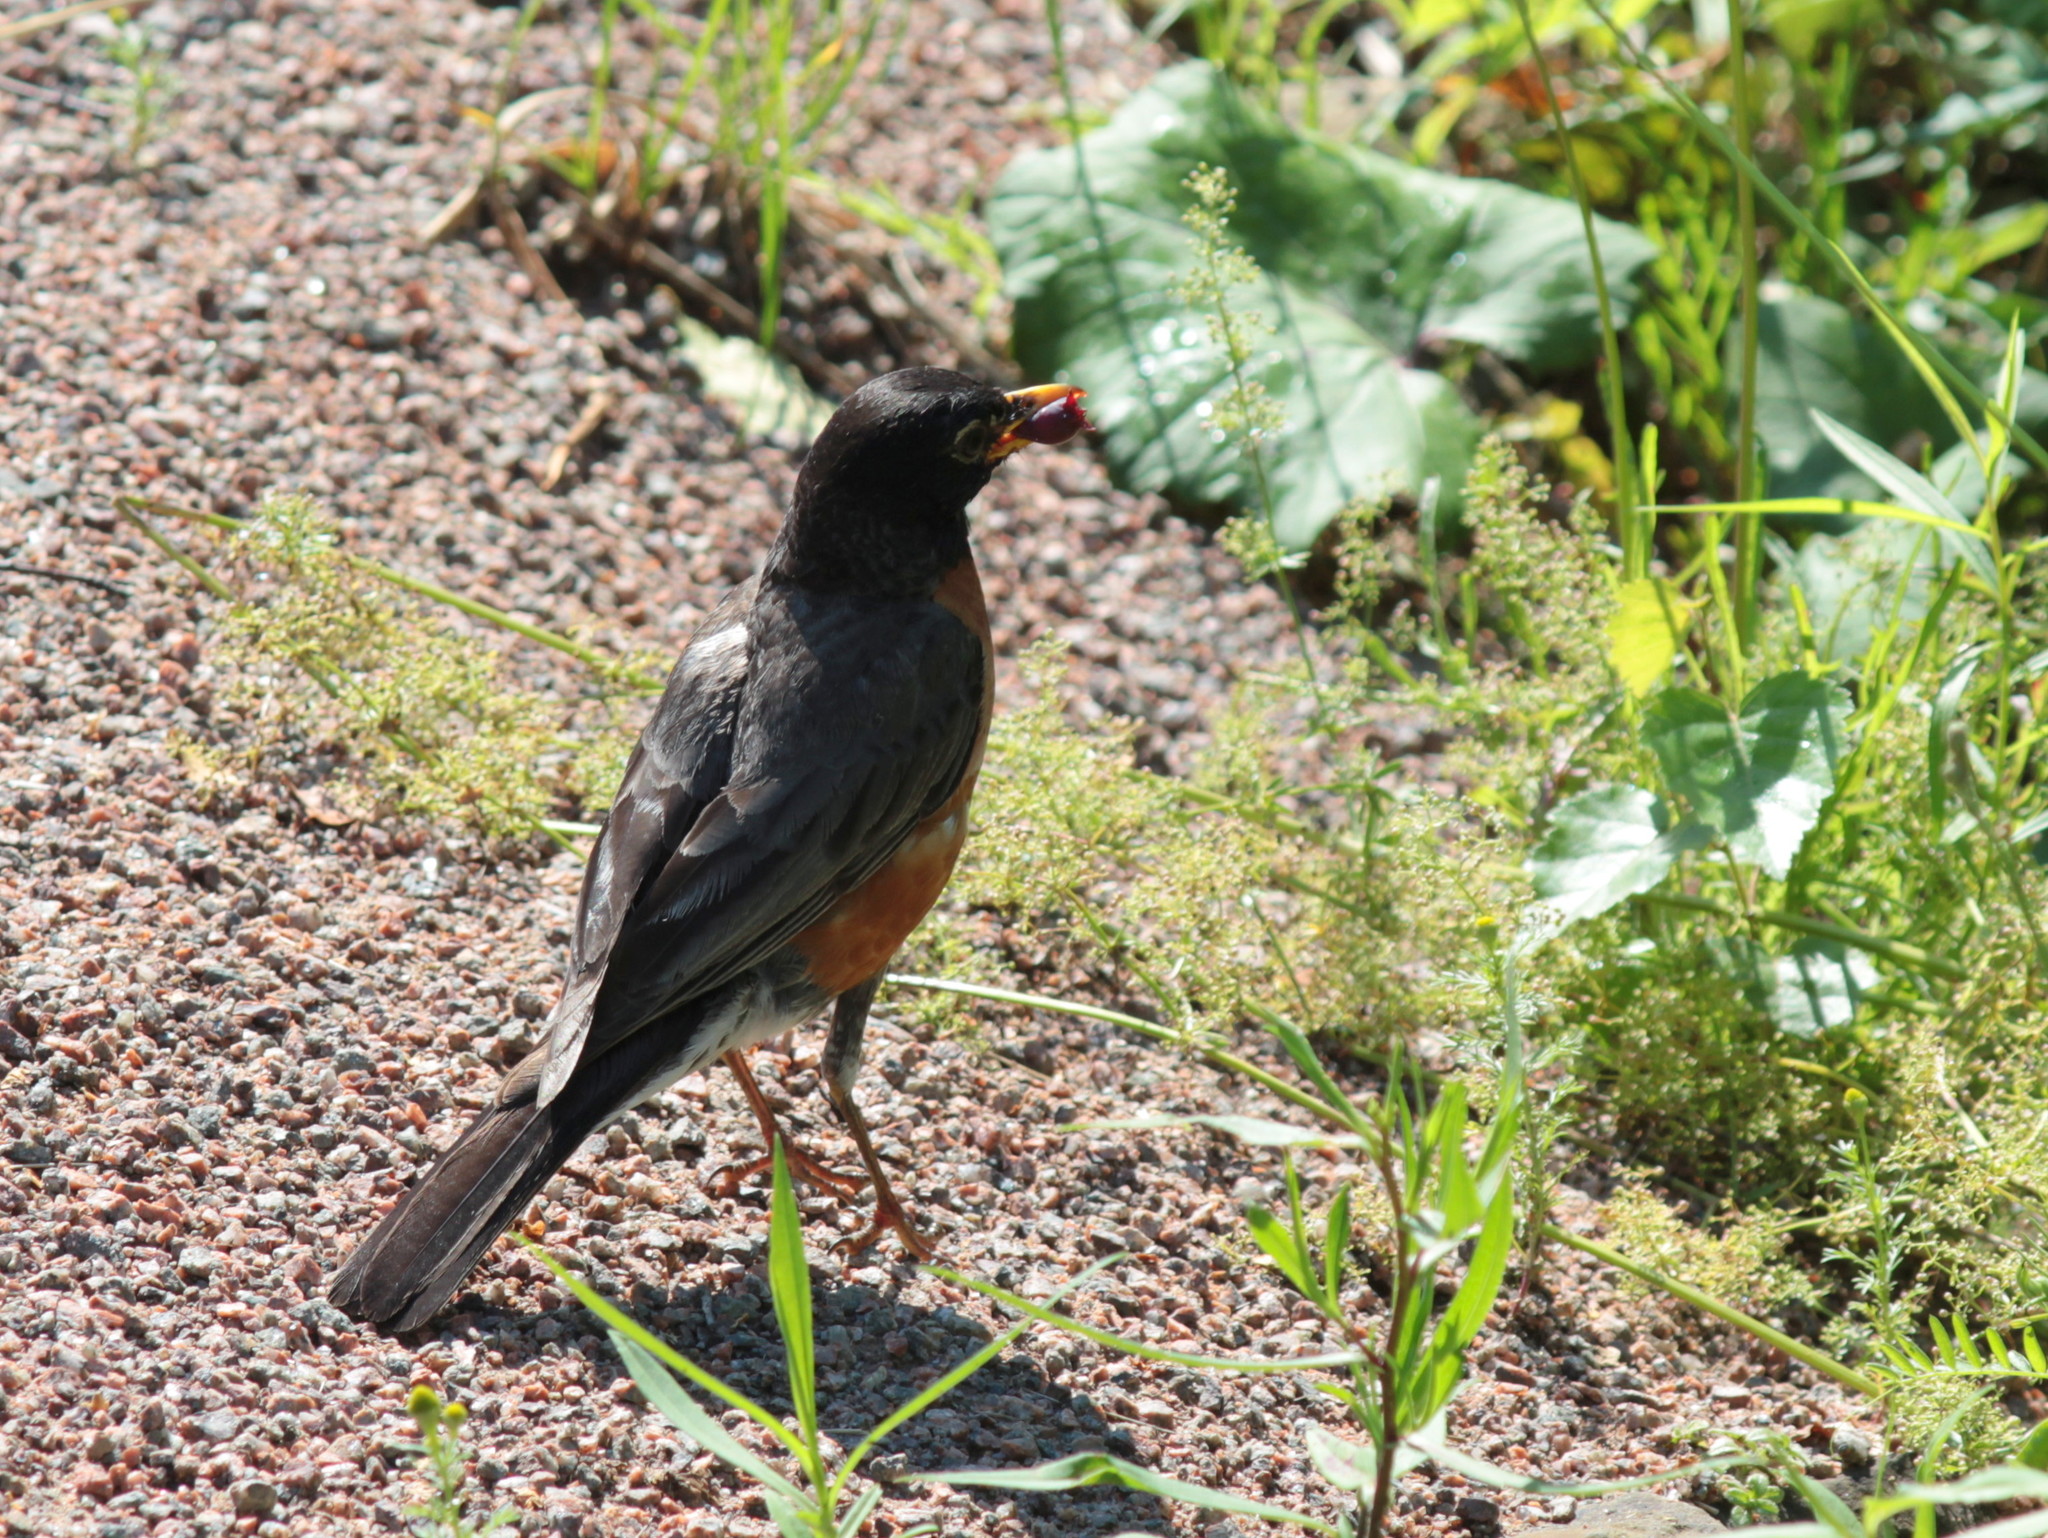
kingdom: Animalia
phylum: Chordata
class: Aves
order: Passeriformes
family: Turdidae
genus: Turdus
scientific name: Turdus migratorius
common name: American robin
